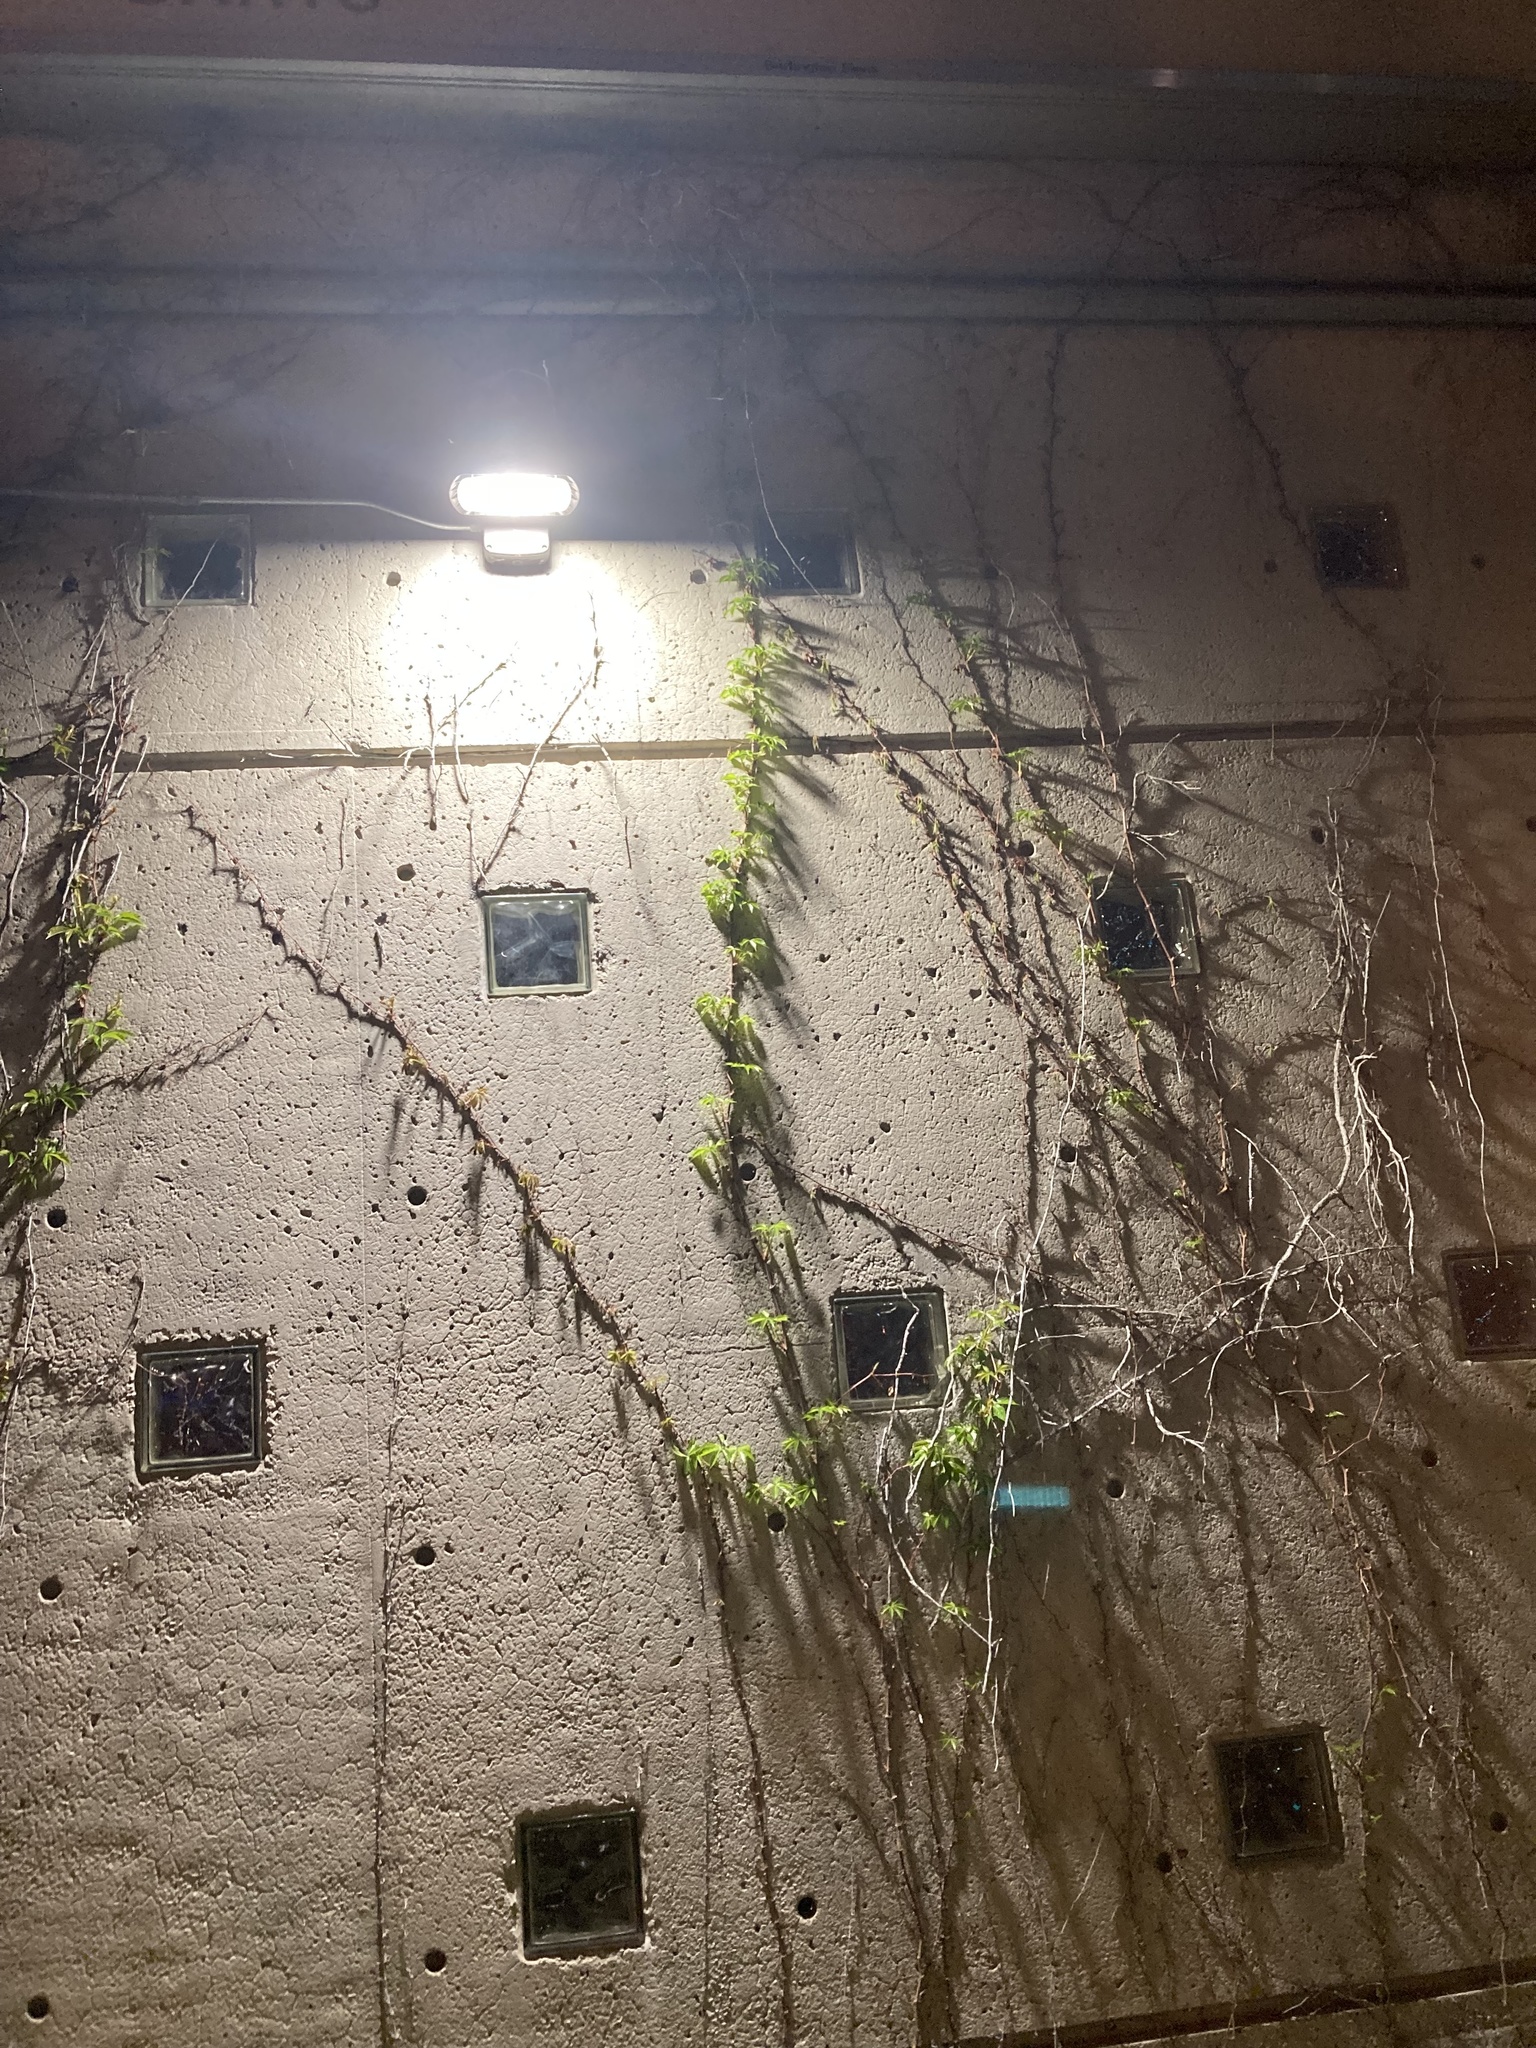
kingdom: Plantae
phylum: Tracheophyta
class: Magnoliopsida
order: Vitales
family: Vitaceae
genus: Parthenocissus
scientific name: Parthenocissus quinquefolia
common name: Virginia-creeper
